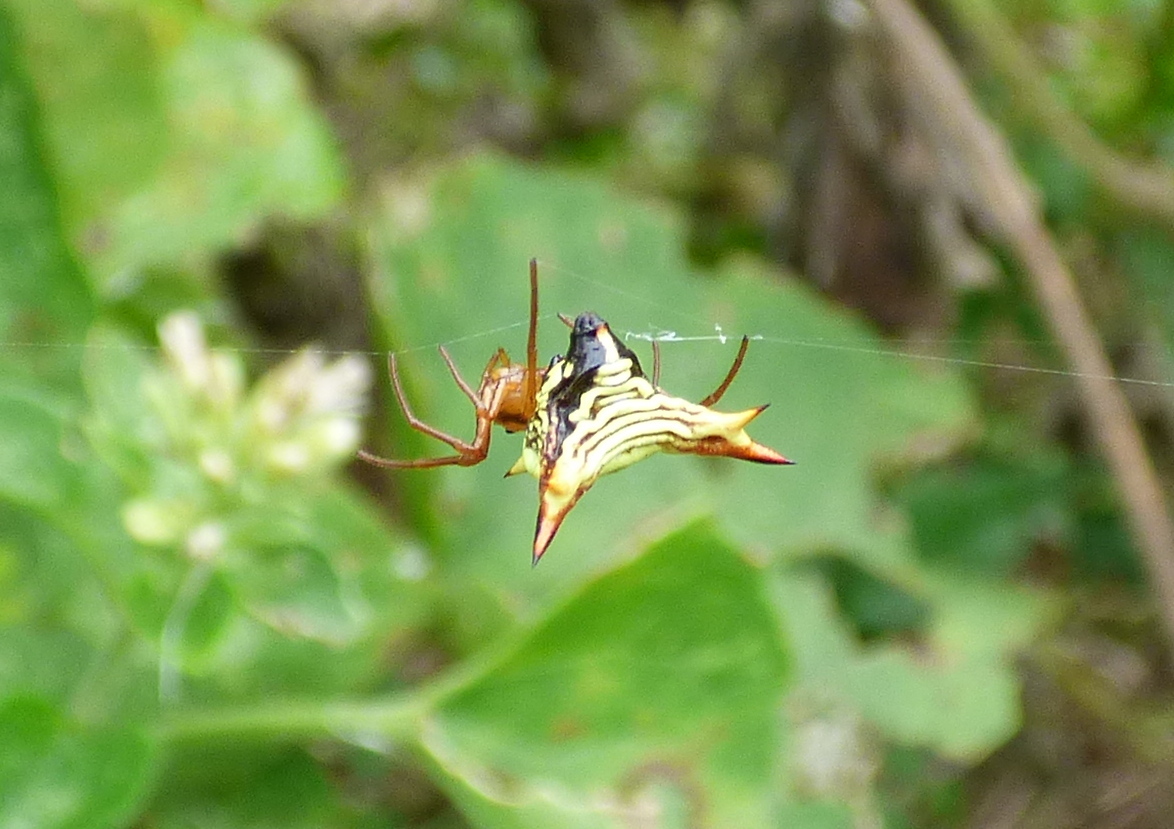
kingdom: Animalia
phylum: Arthropoda
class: Arachnida
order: Araneae
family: Araneidae
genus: Micrathena
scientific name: Micrathena furcata
